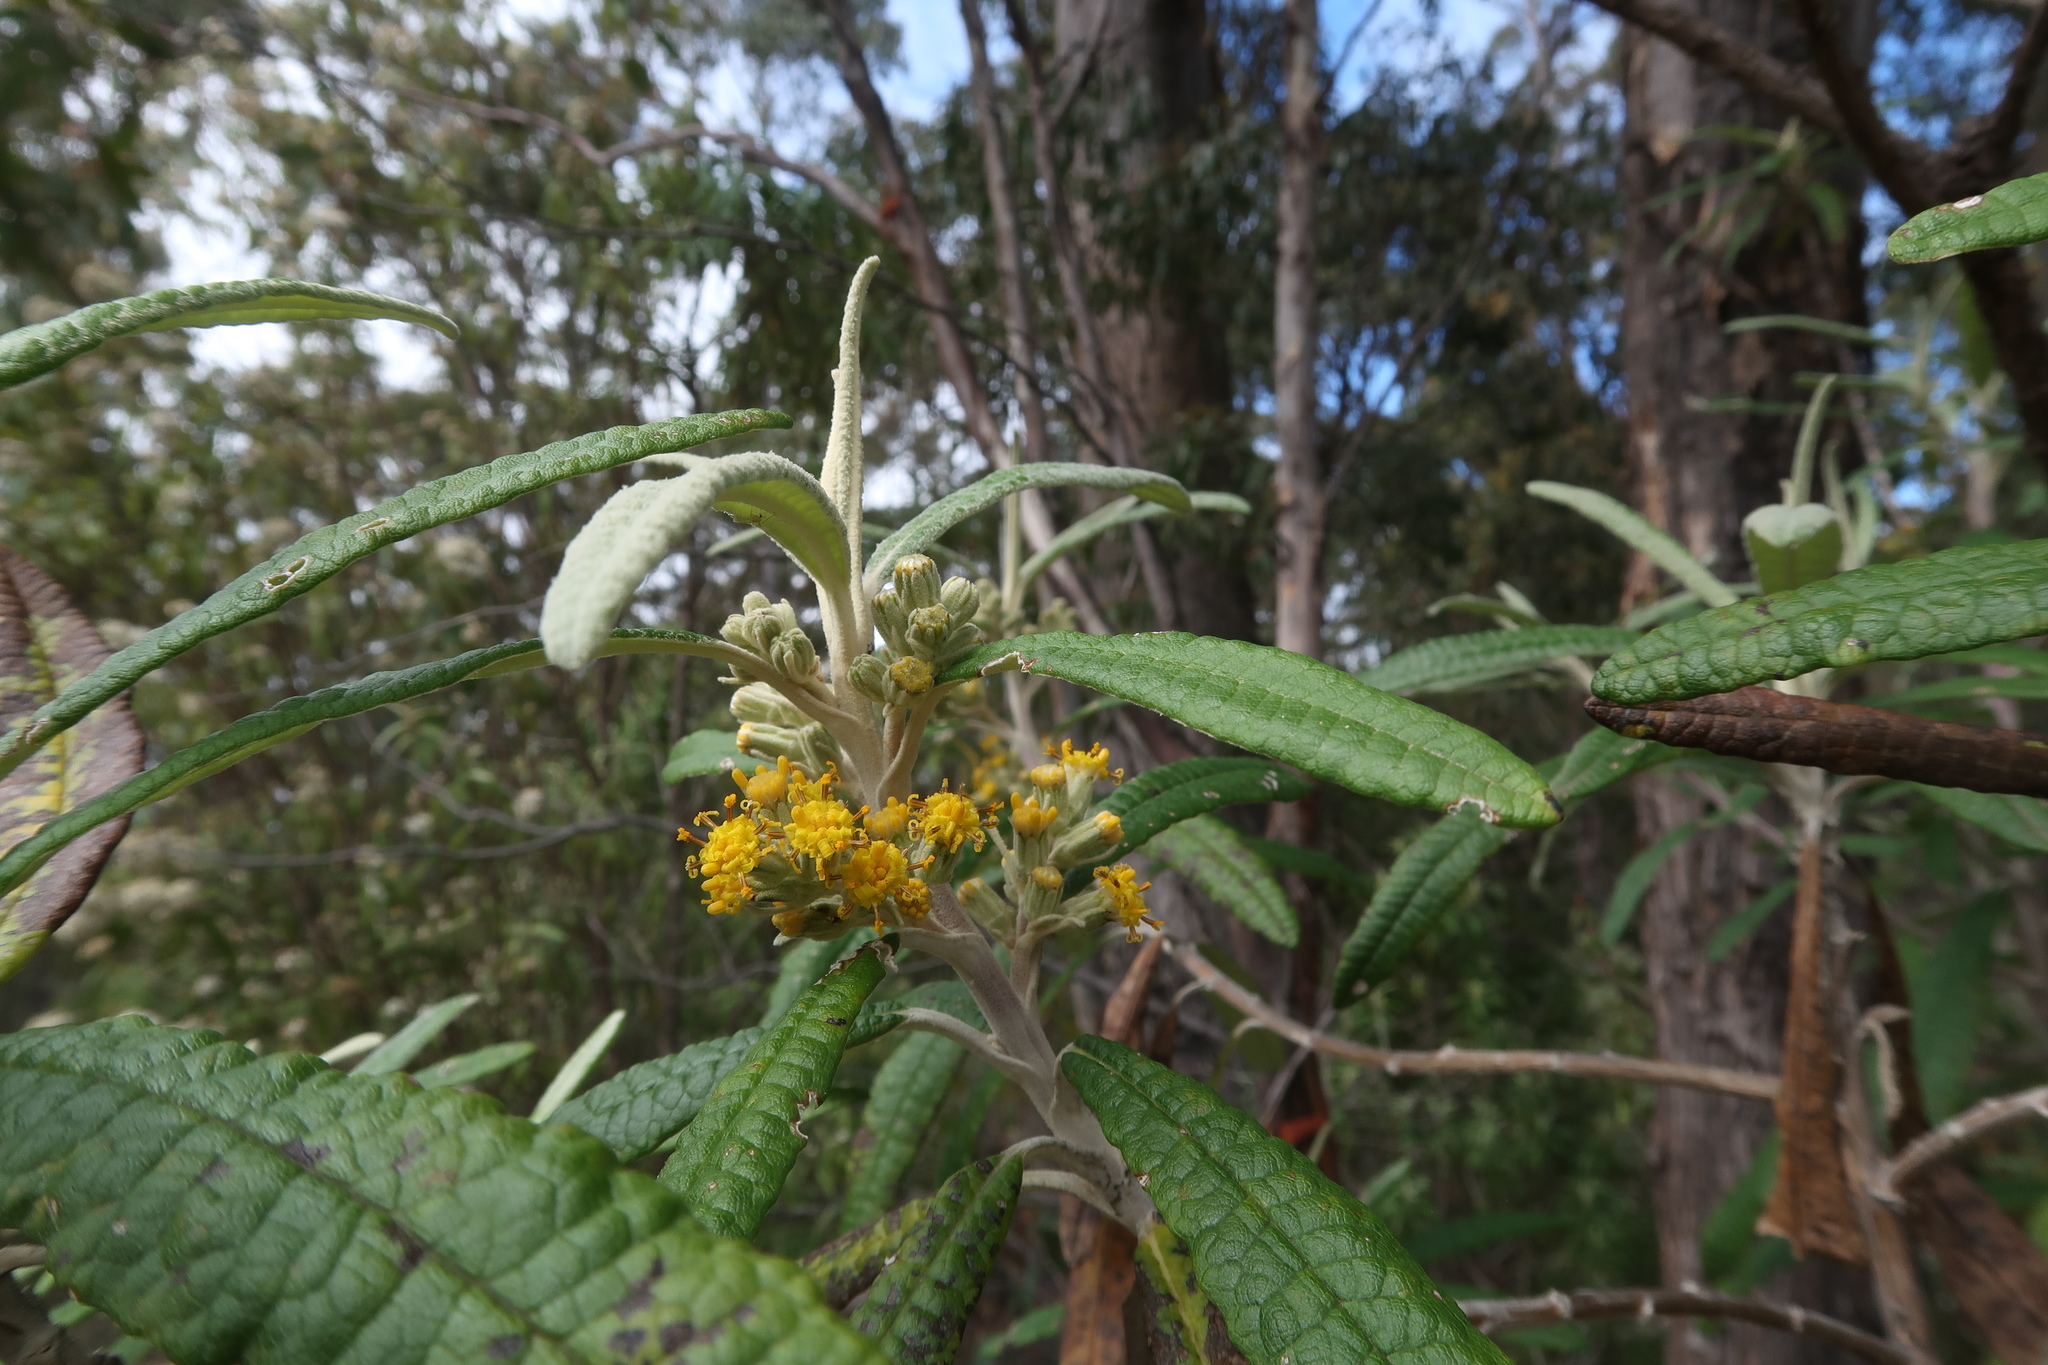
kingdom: Plantae
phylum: Tracheophyta
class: Magnoliopsida
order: Asterales
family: Asteraceae
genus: Bedfordia
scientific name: Bedfordia salicina
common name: Blanketleaf
